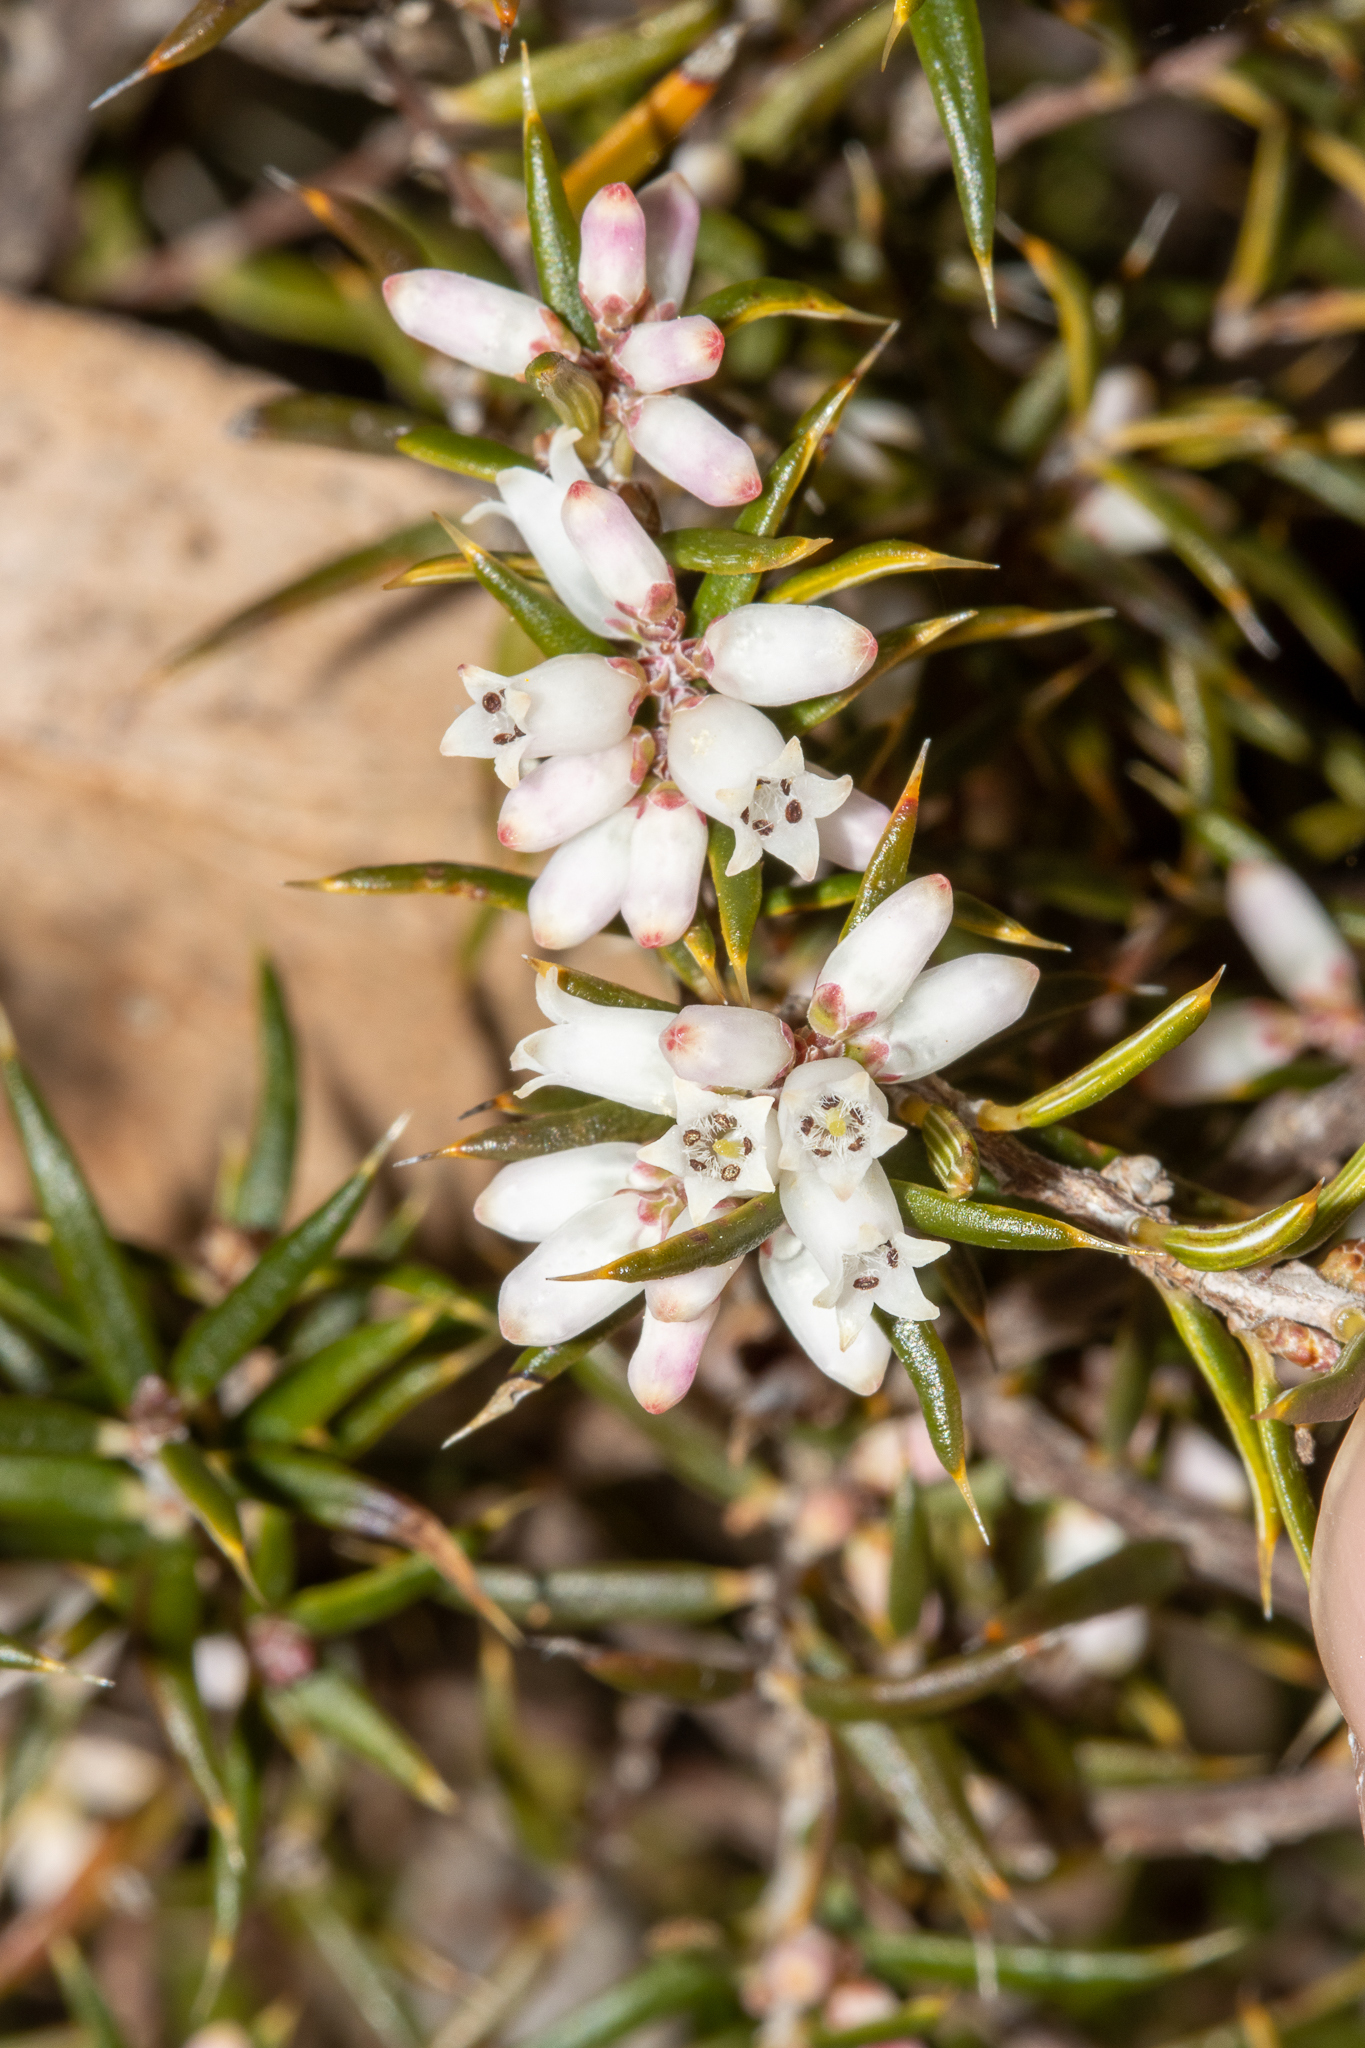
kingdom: Plantae
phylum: Tracheophyta
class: Magnoliopsida
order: Ericales
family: Ericaceae
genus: Lissanthe
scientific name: Lissanthe strigosa
